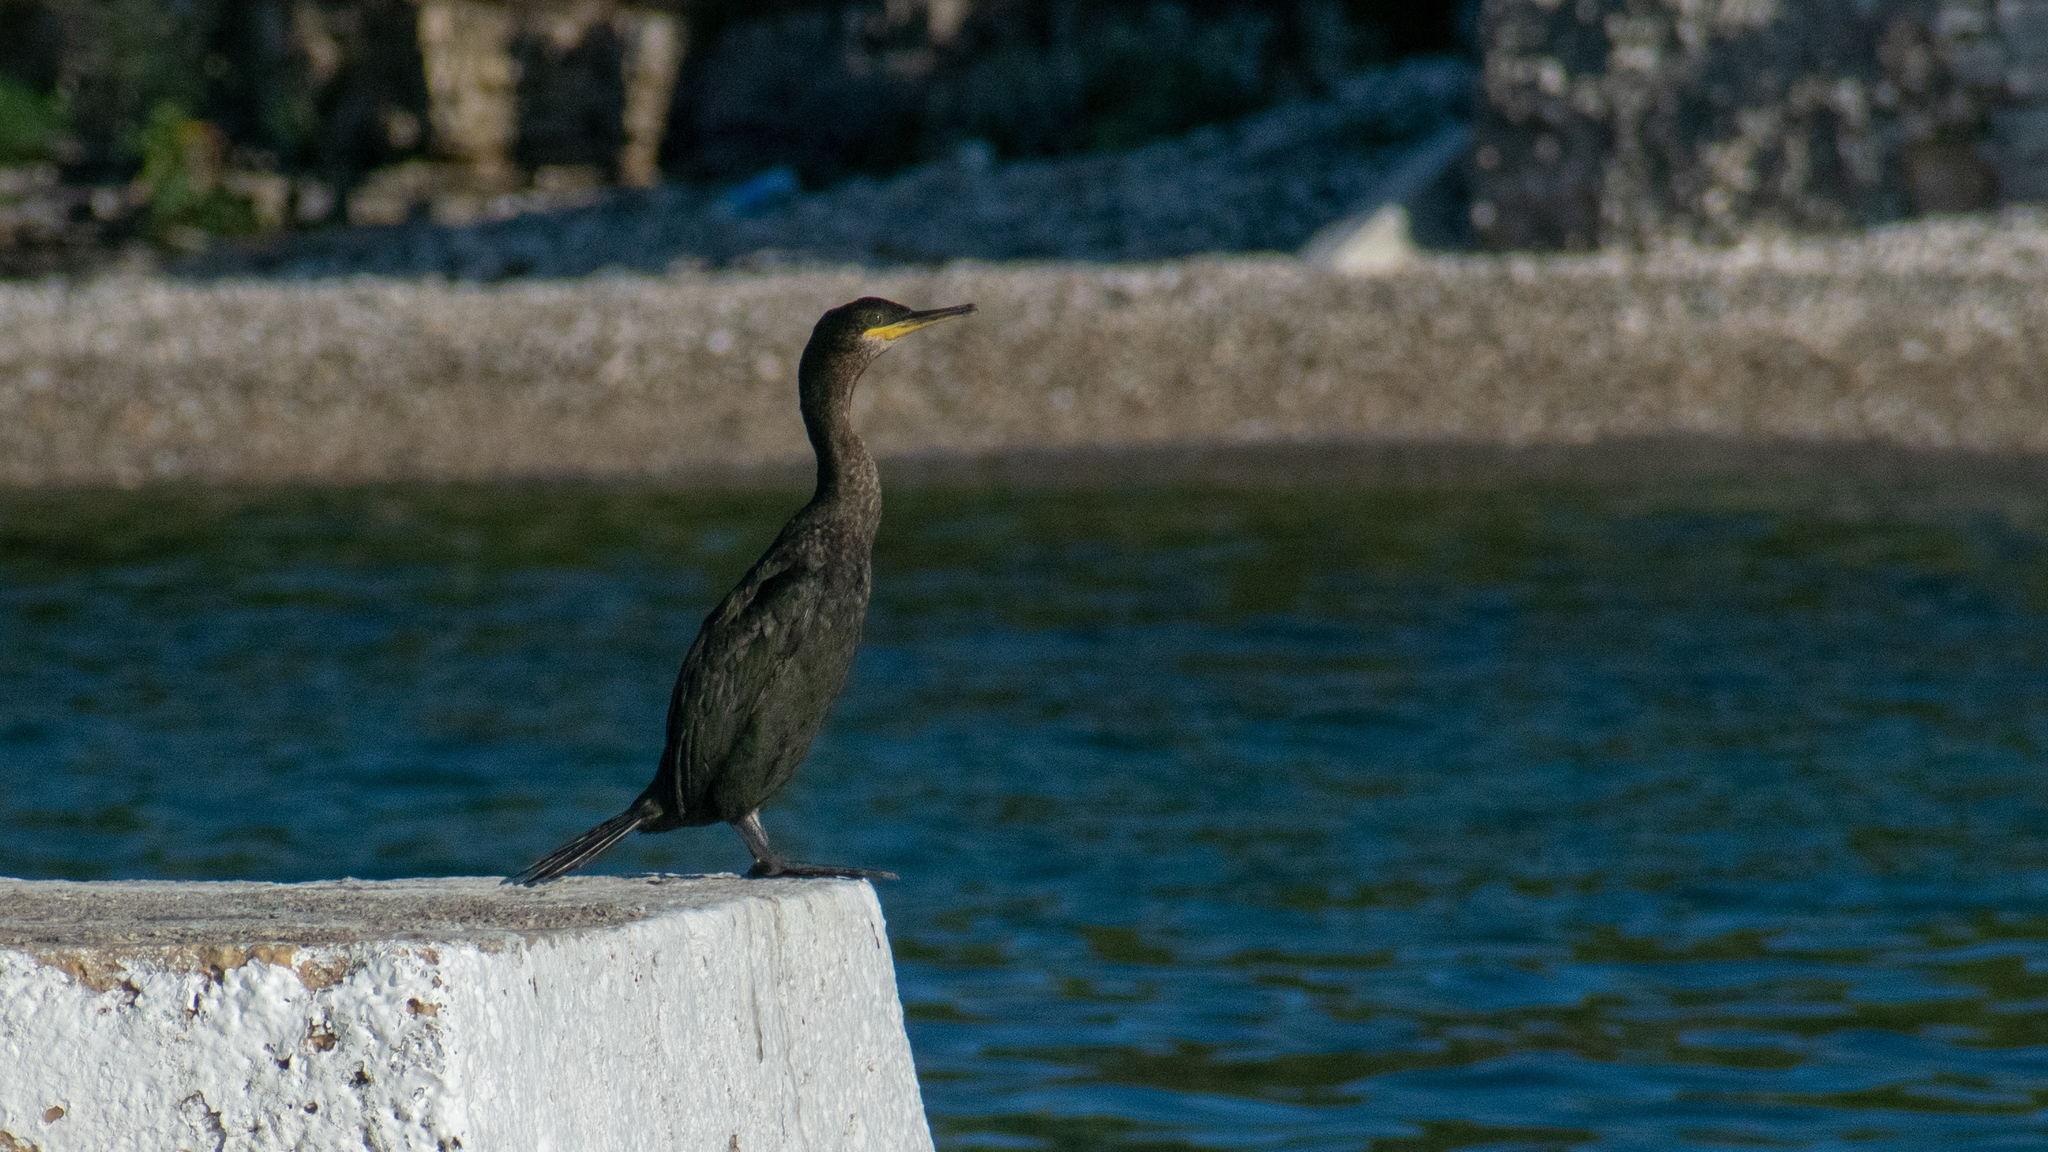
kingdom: Animalia
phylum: Chordata
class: Aves
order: Suliformes
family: Phalacrocoracidae
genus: Phalacrocorax
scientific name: Phalacrocorax aristotelis
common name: European shag
